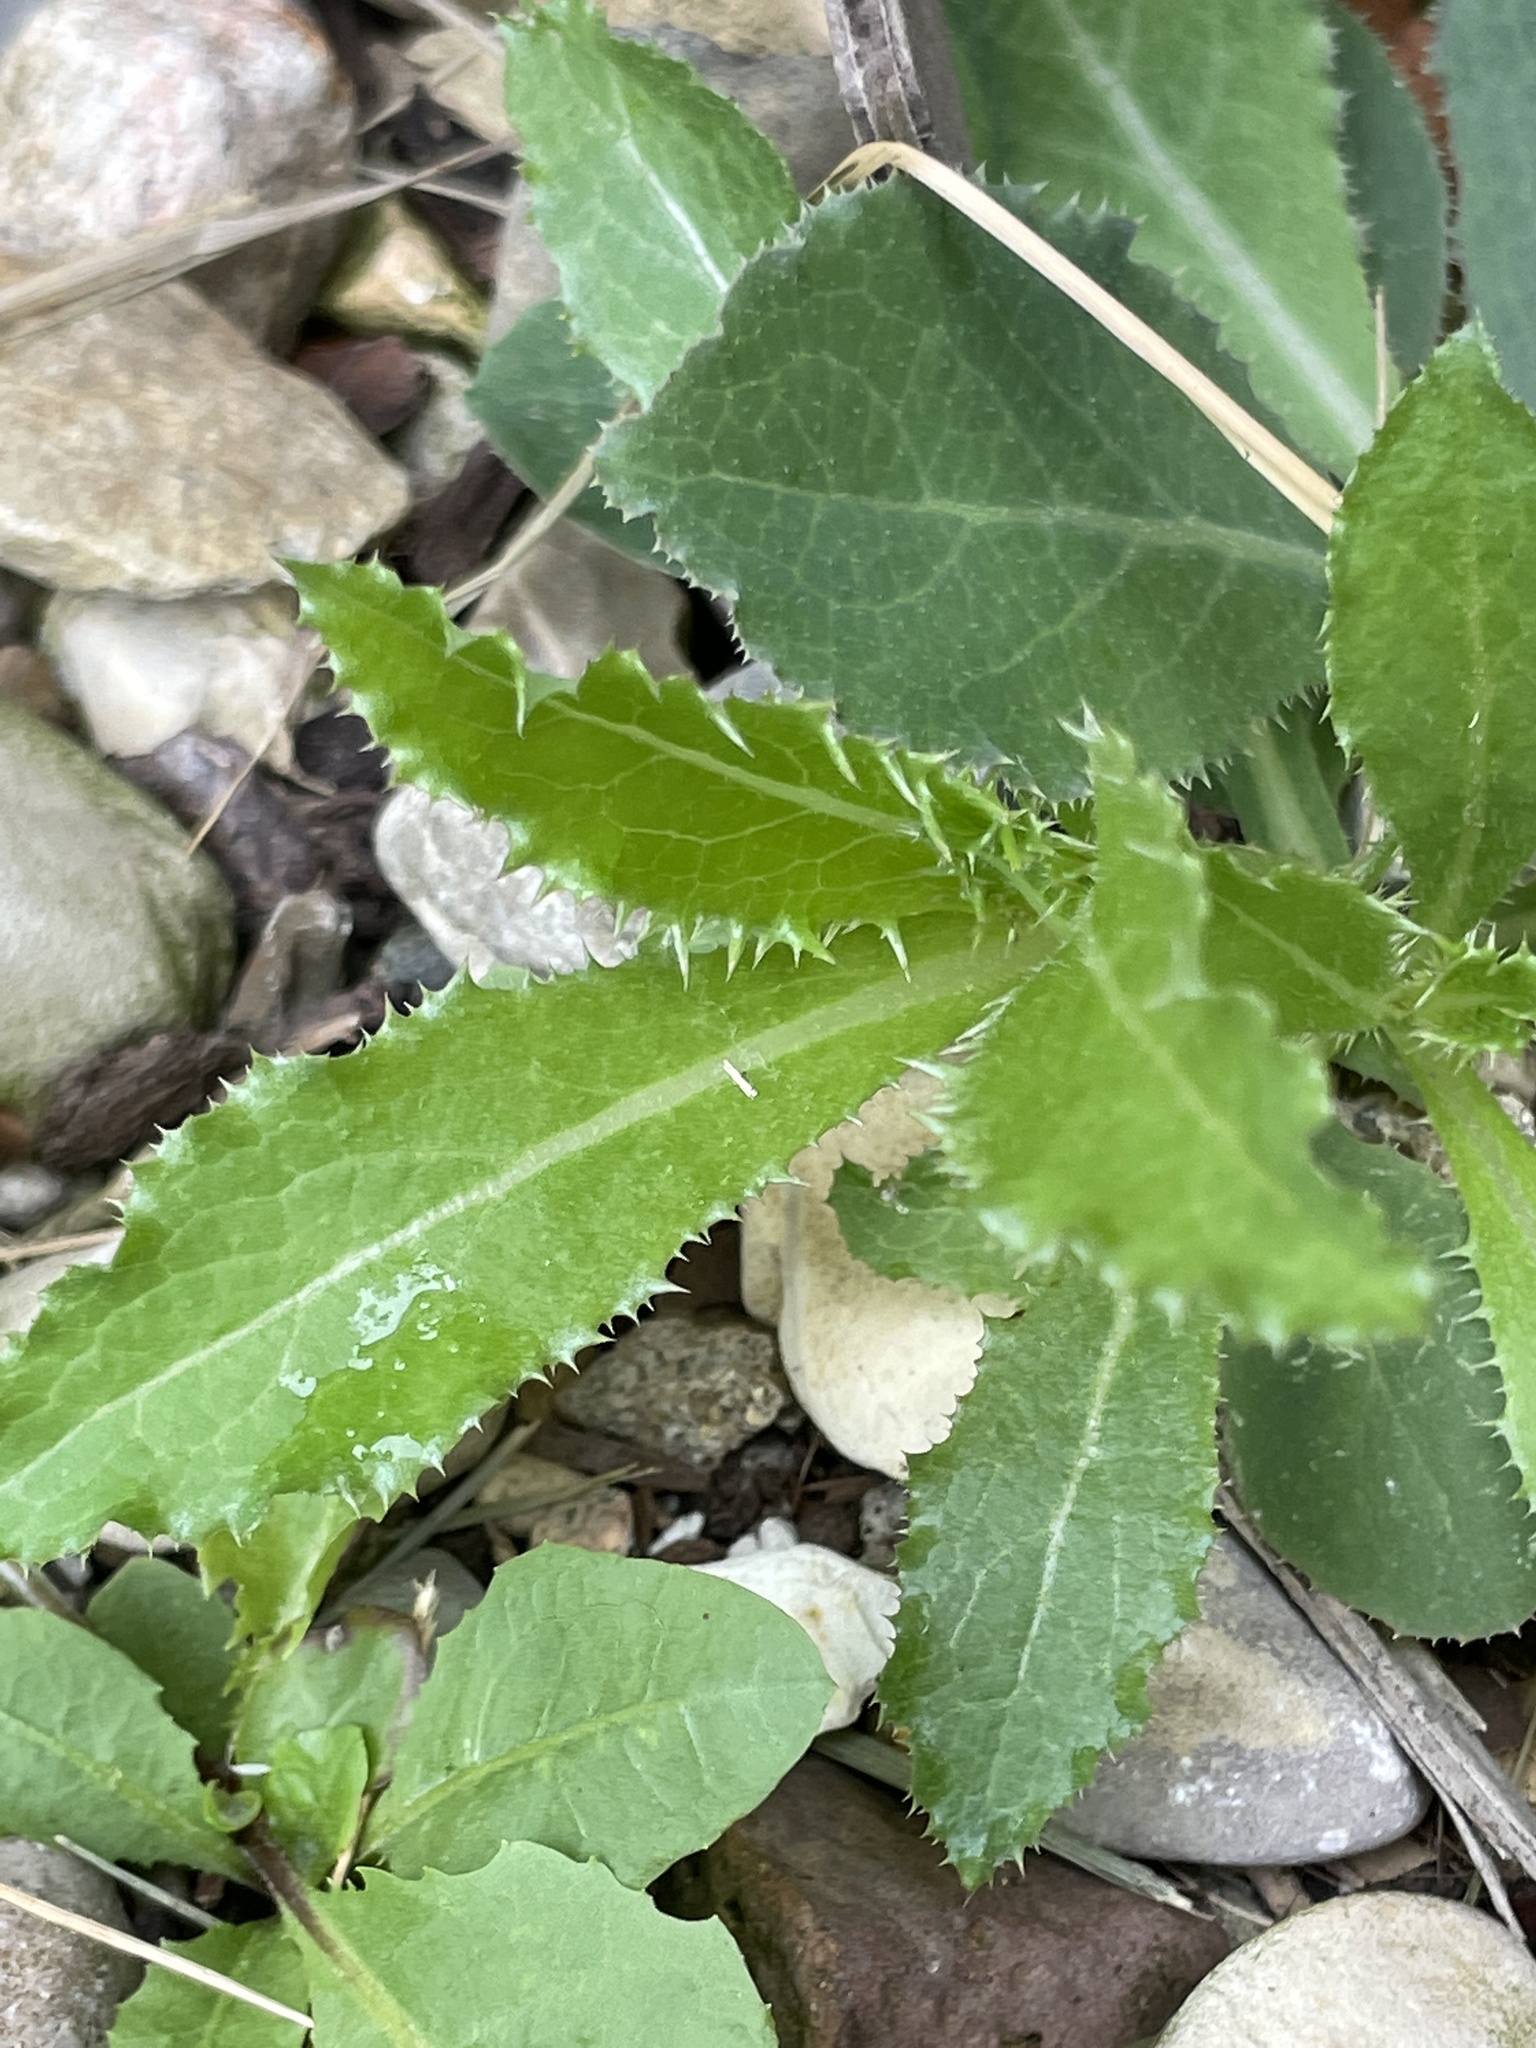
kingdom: Plantae
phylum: Tracheophyta
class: Magnoliopsida
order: Asterales
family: Asteraceae
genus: Cirsium
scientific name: Cirsium arvense
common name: Creeping thistle
